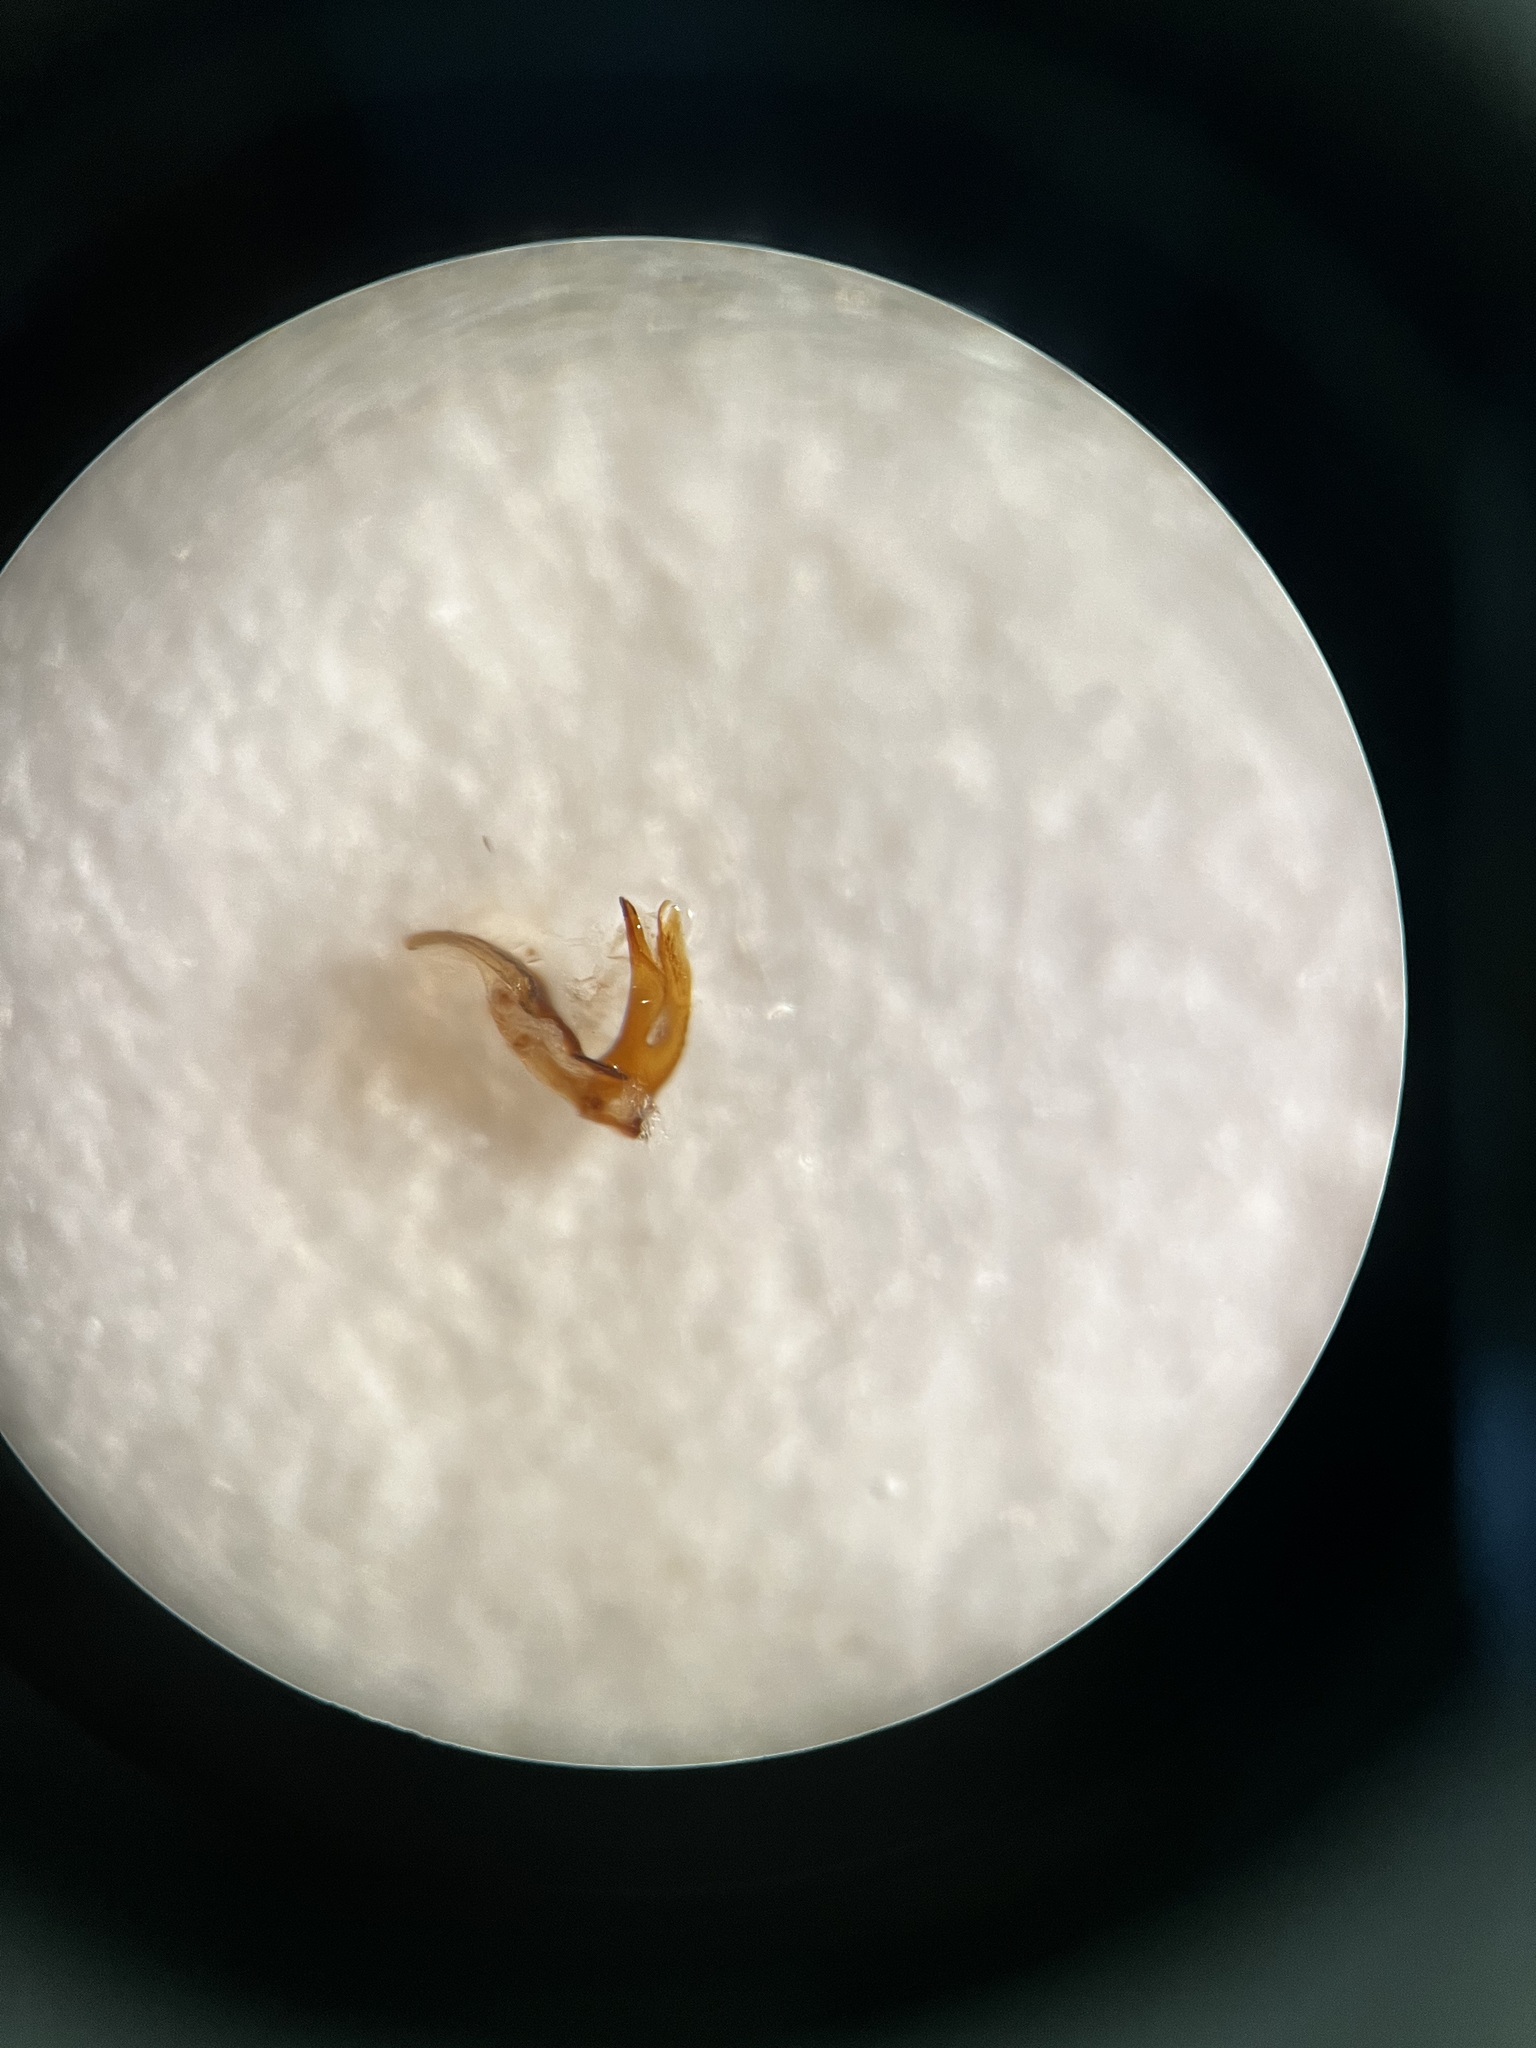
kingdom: Animalia
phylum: Arthropoda
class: Insecta
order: Hemiptera
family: Delphacidae
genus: Javesella
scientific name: Javesella dubia
